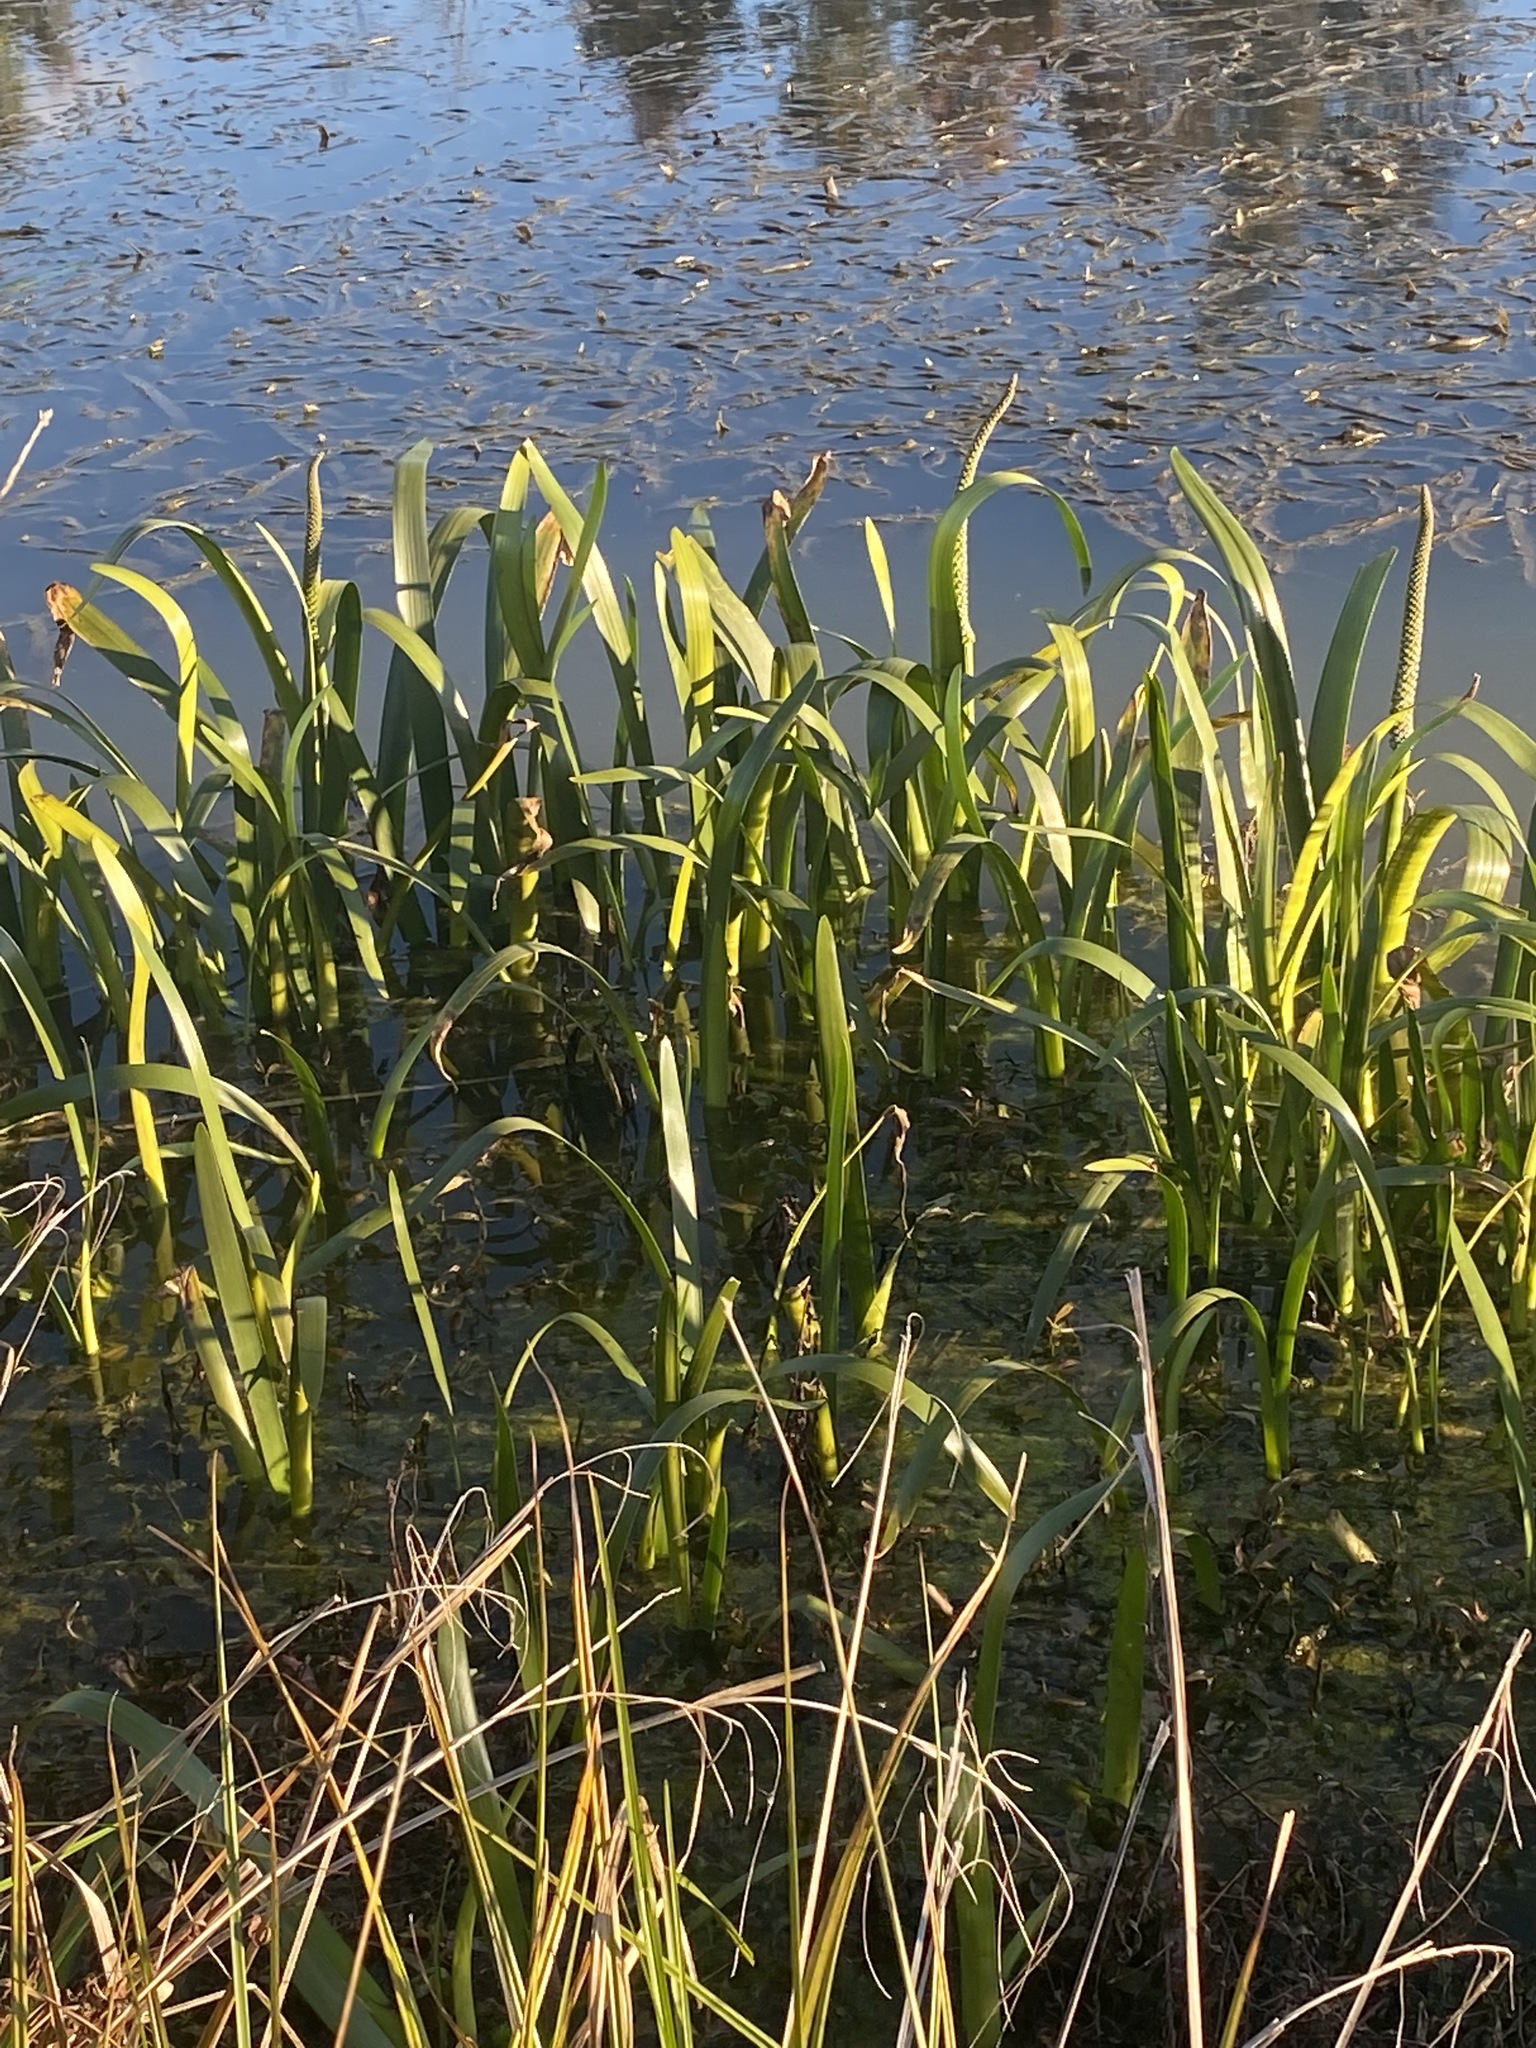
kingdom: Plantae
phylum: Tracheophyta
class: Liliopsida
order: Alismatales
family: Juncaginaceae
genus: Cycnogeton
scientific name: Cycnogeton procerum
